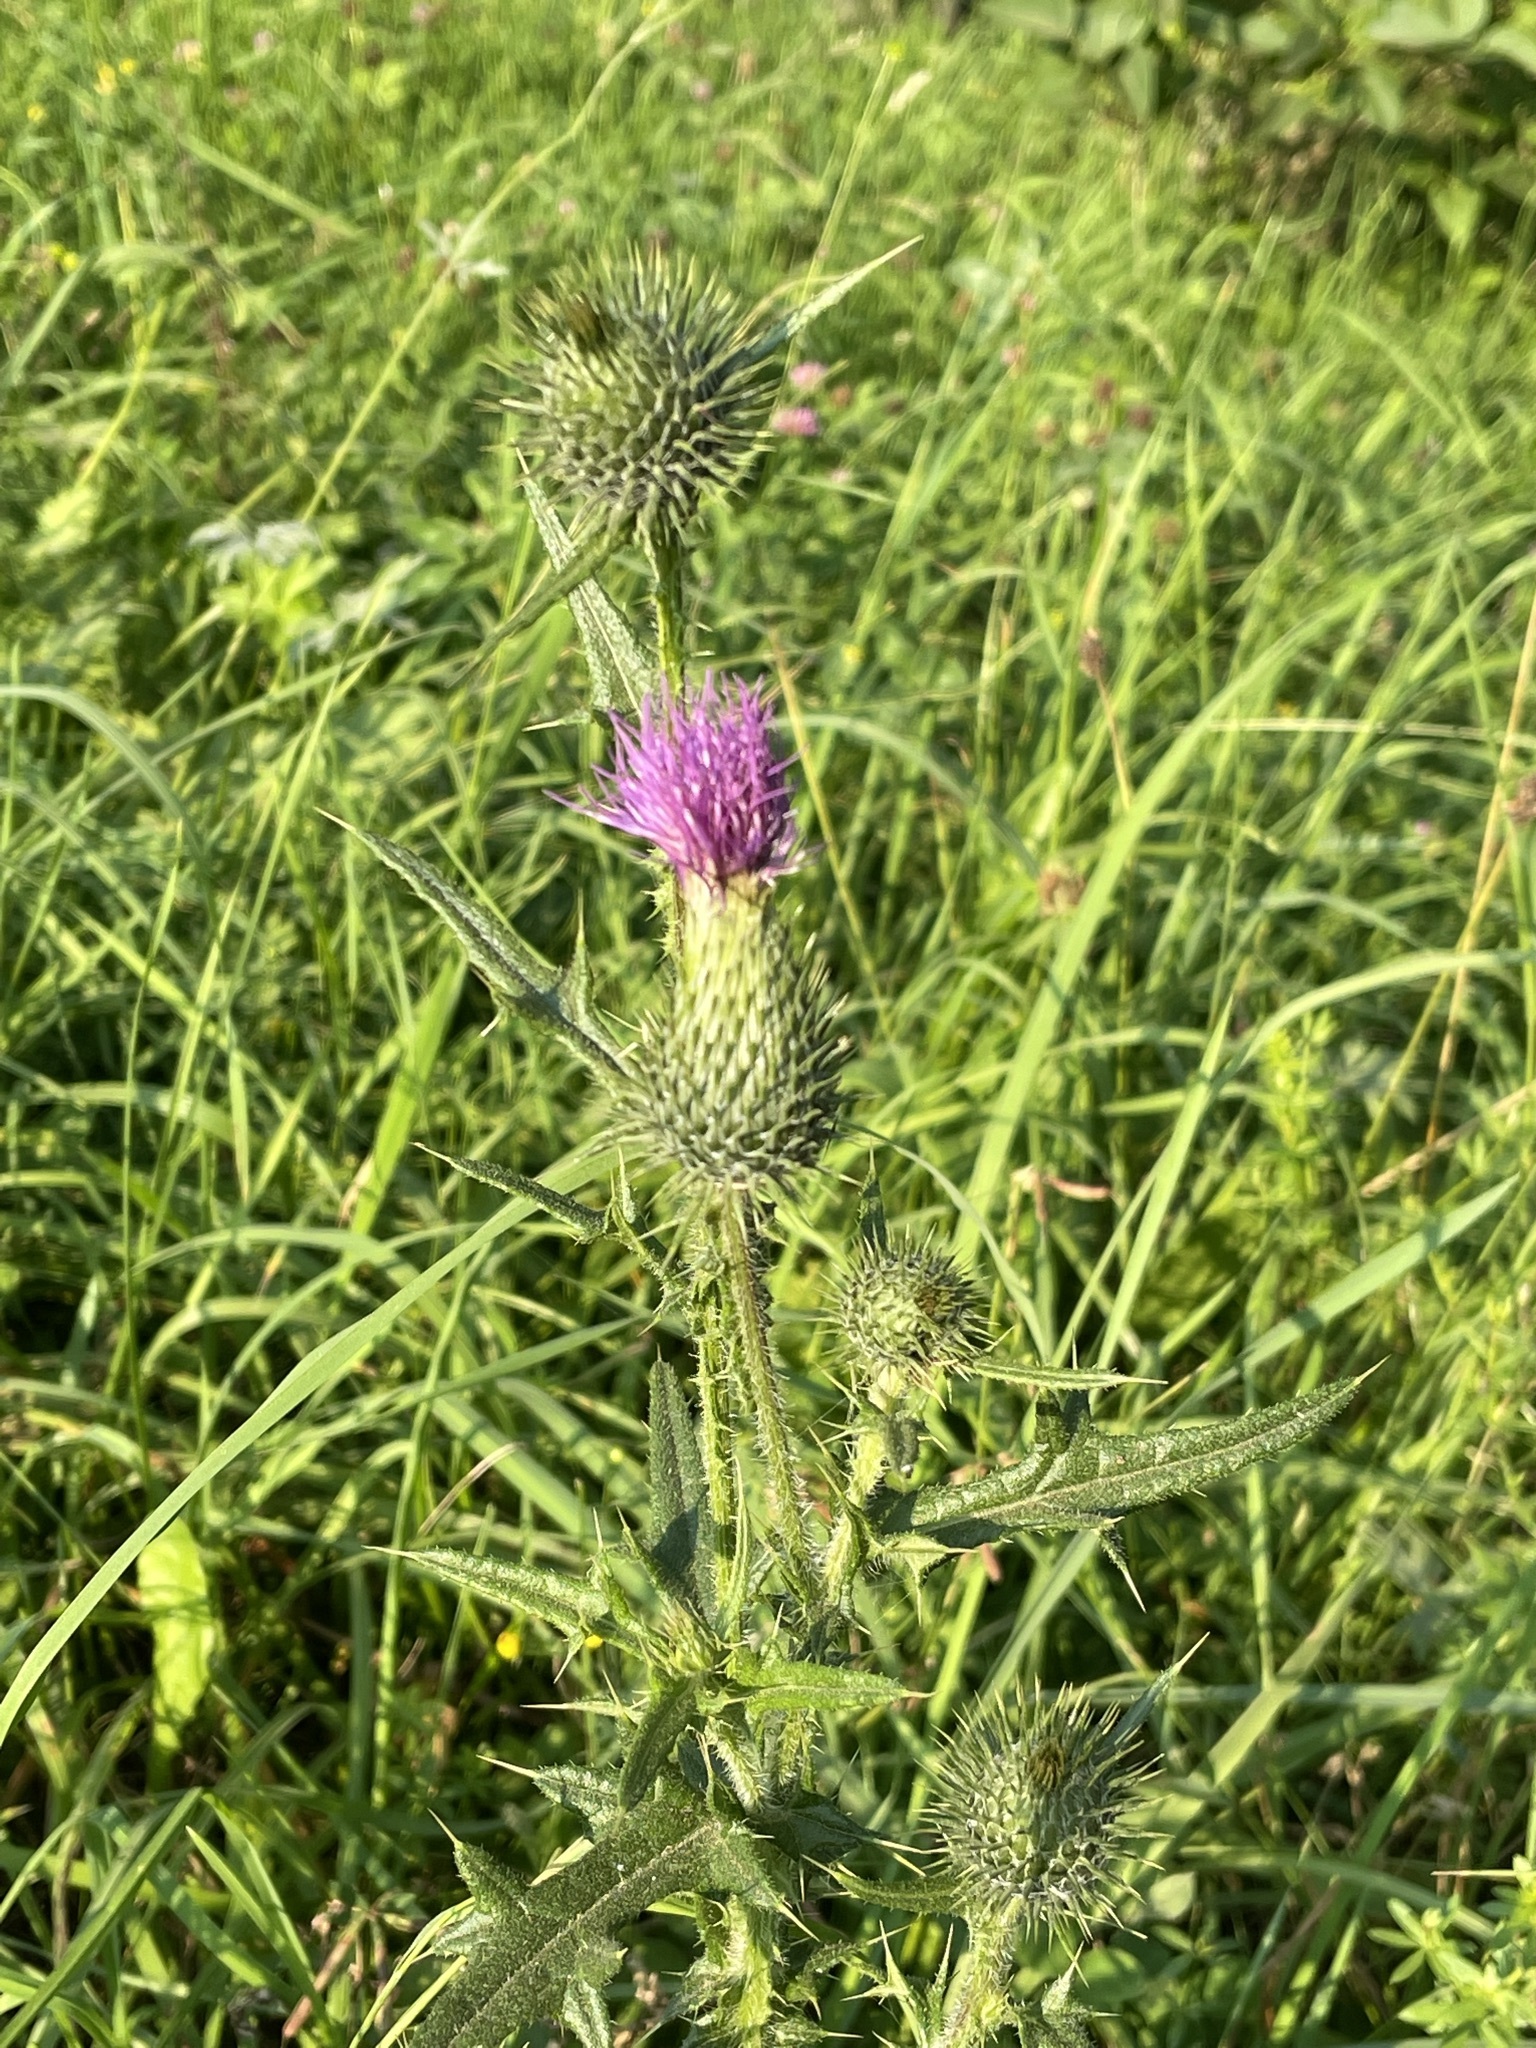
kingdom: Plantae
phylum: Tracheophyta
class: Magnoliopsida
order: Asterales
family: Asteraceae
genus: Cirsium
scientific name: Cirsium vulgare
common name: Bull thistle
